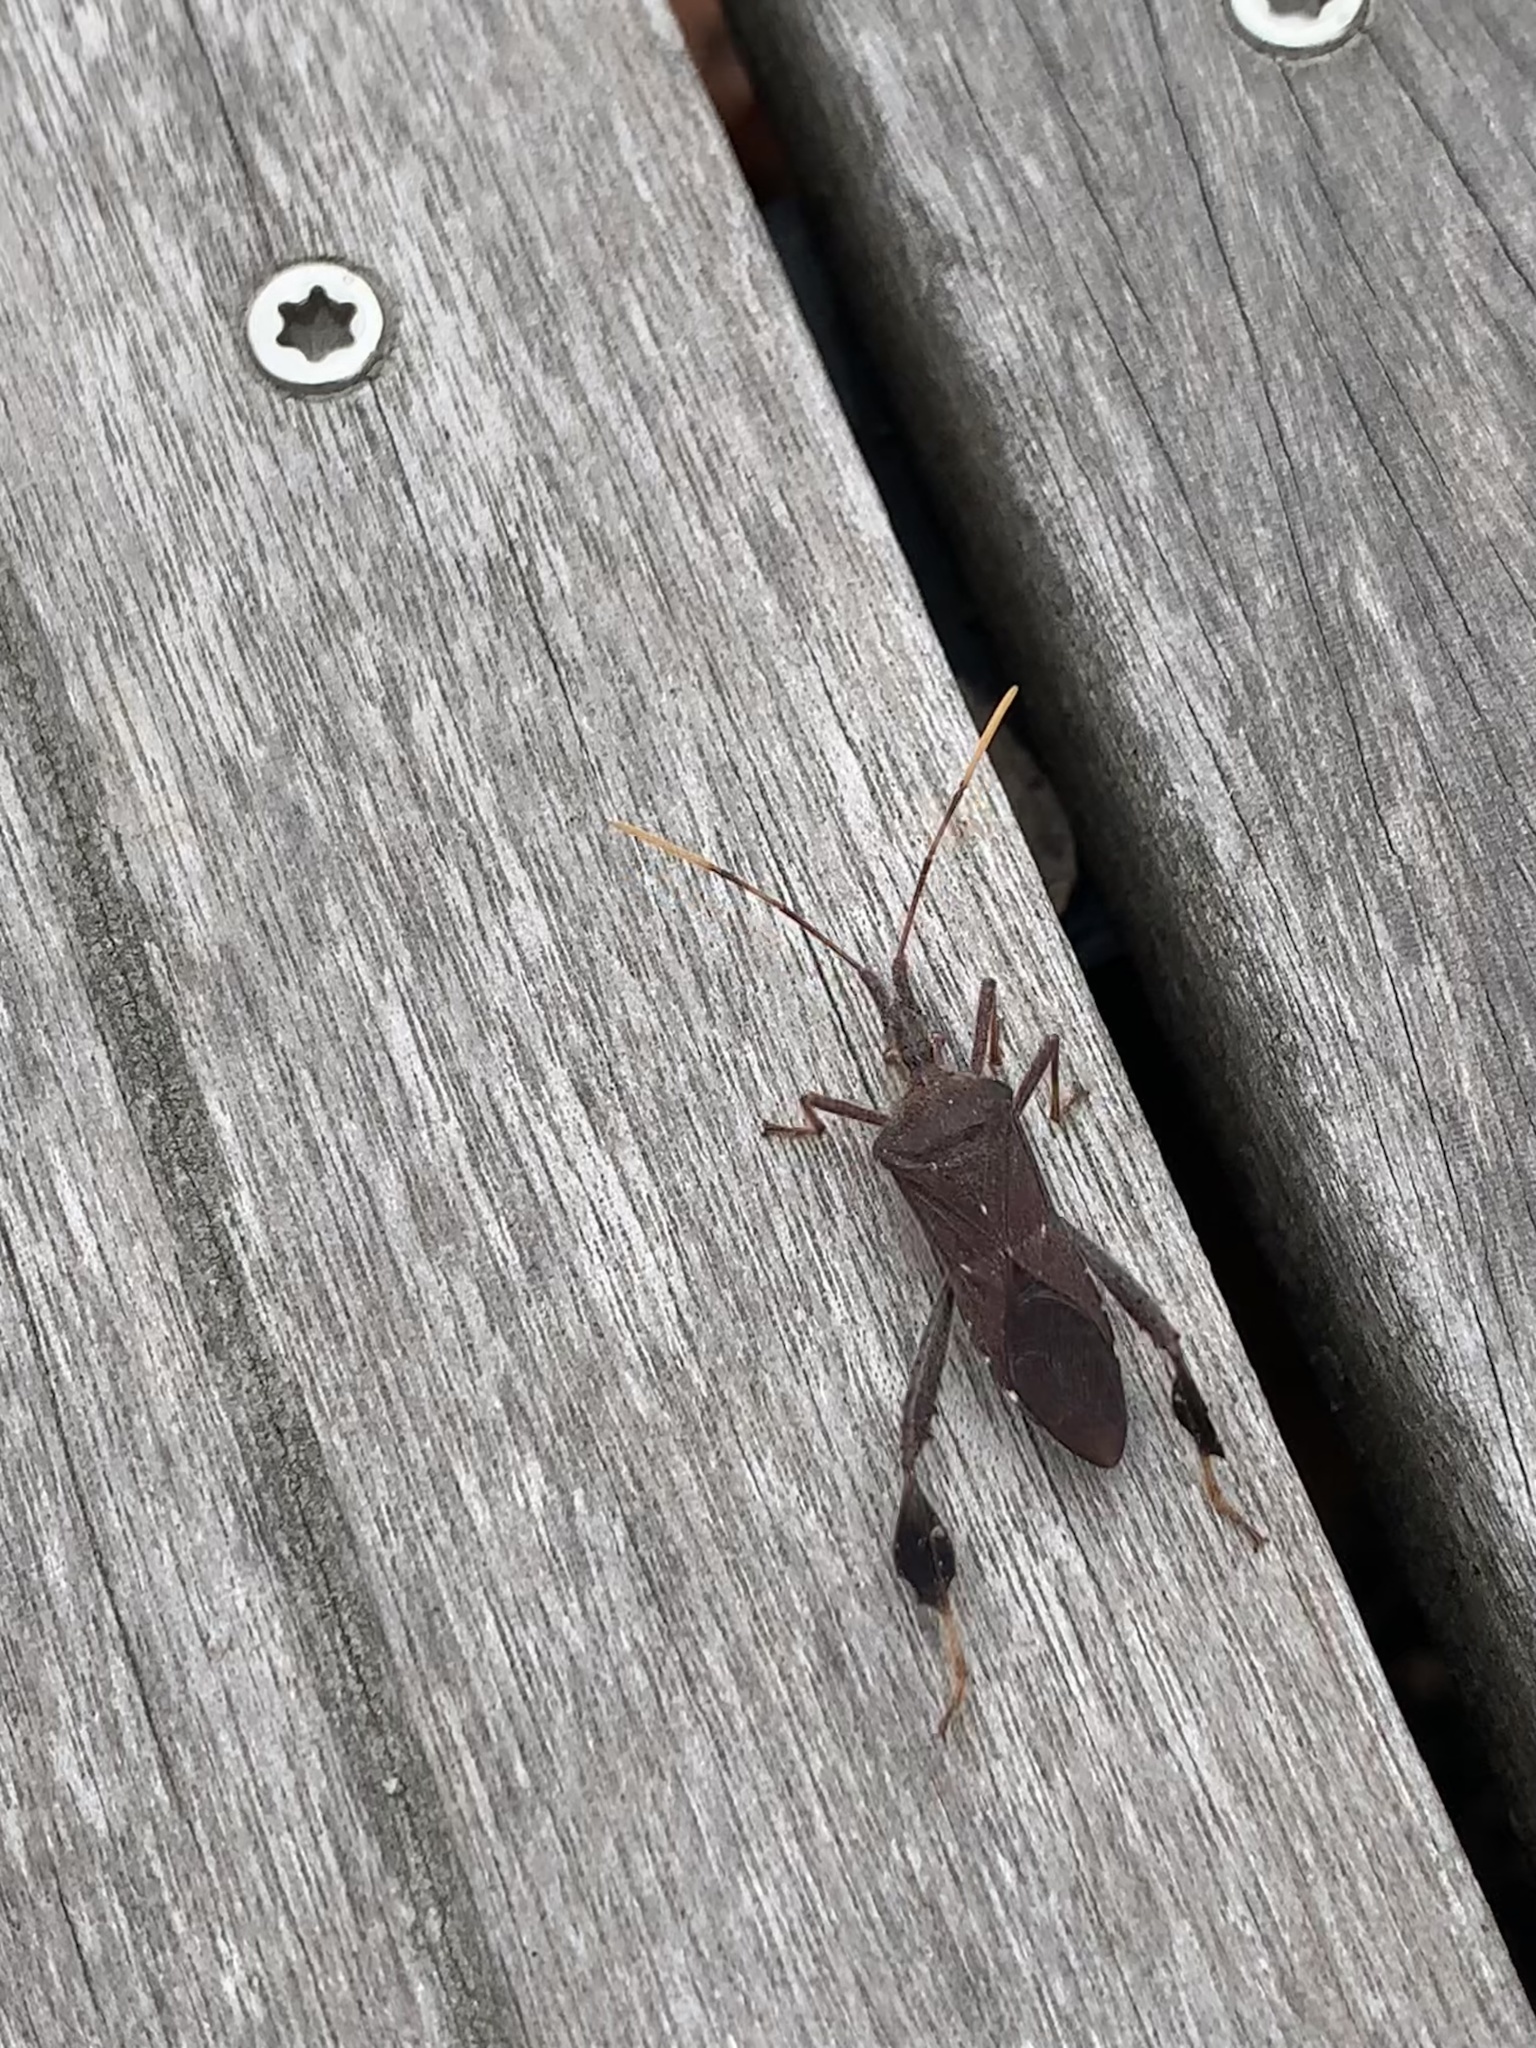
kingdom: Animalia
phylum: Arthropoda
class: Insecta
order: Hemiptera
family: Coreidae
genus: Leptoglossus
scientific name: Leptoglossus oppositus
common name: Northern leaf-footed bug
